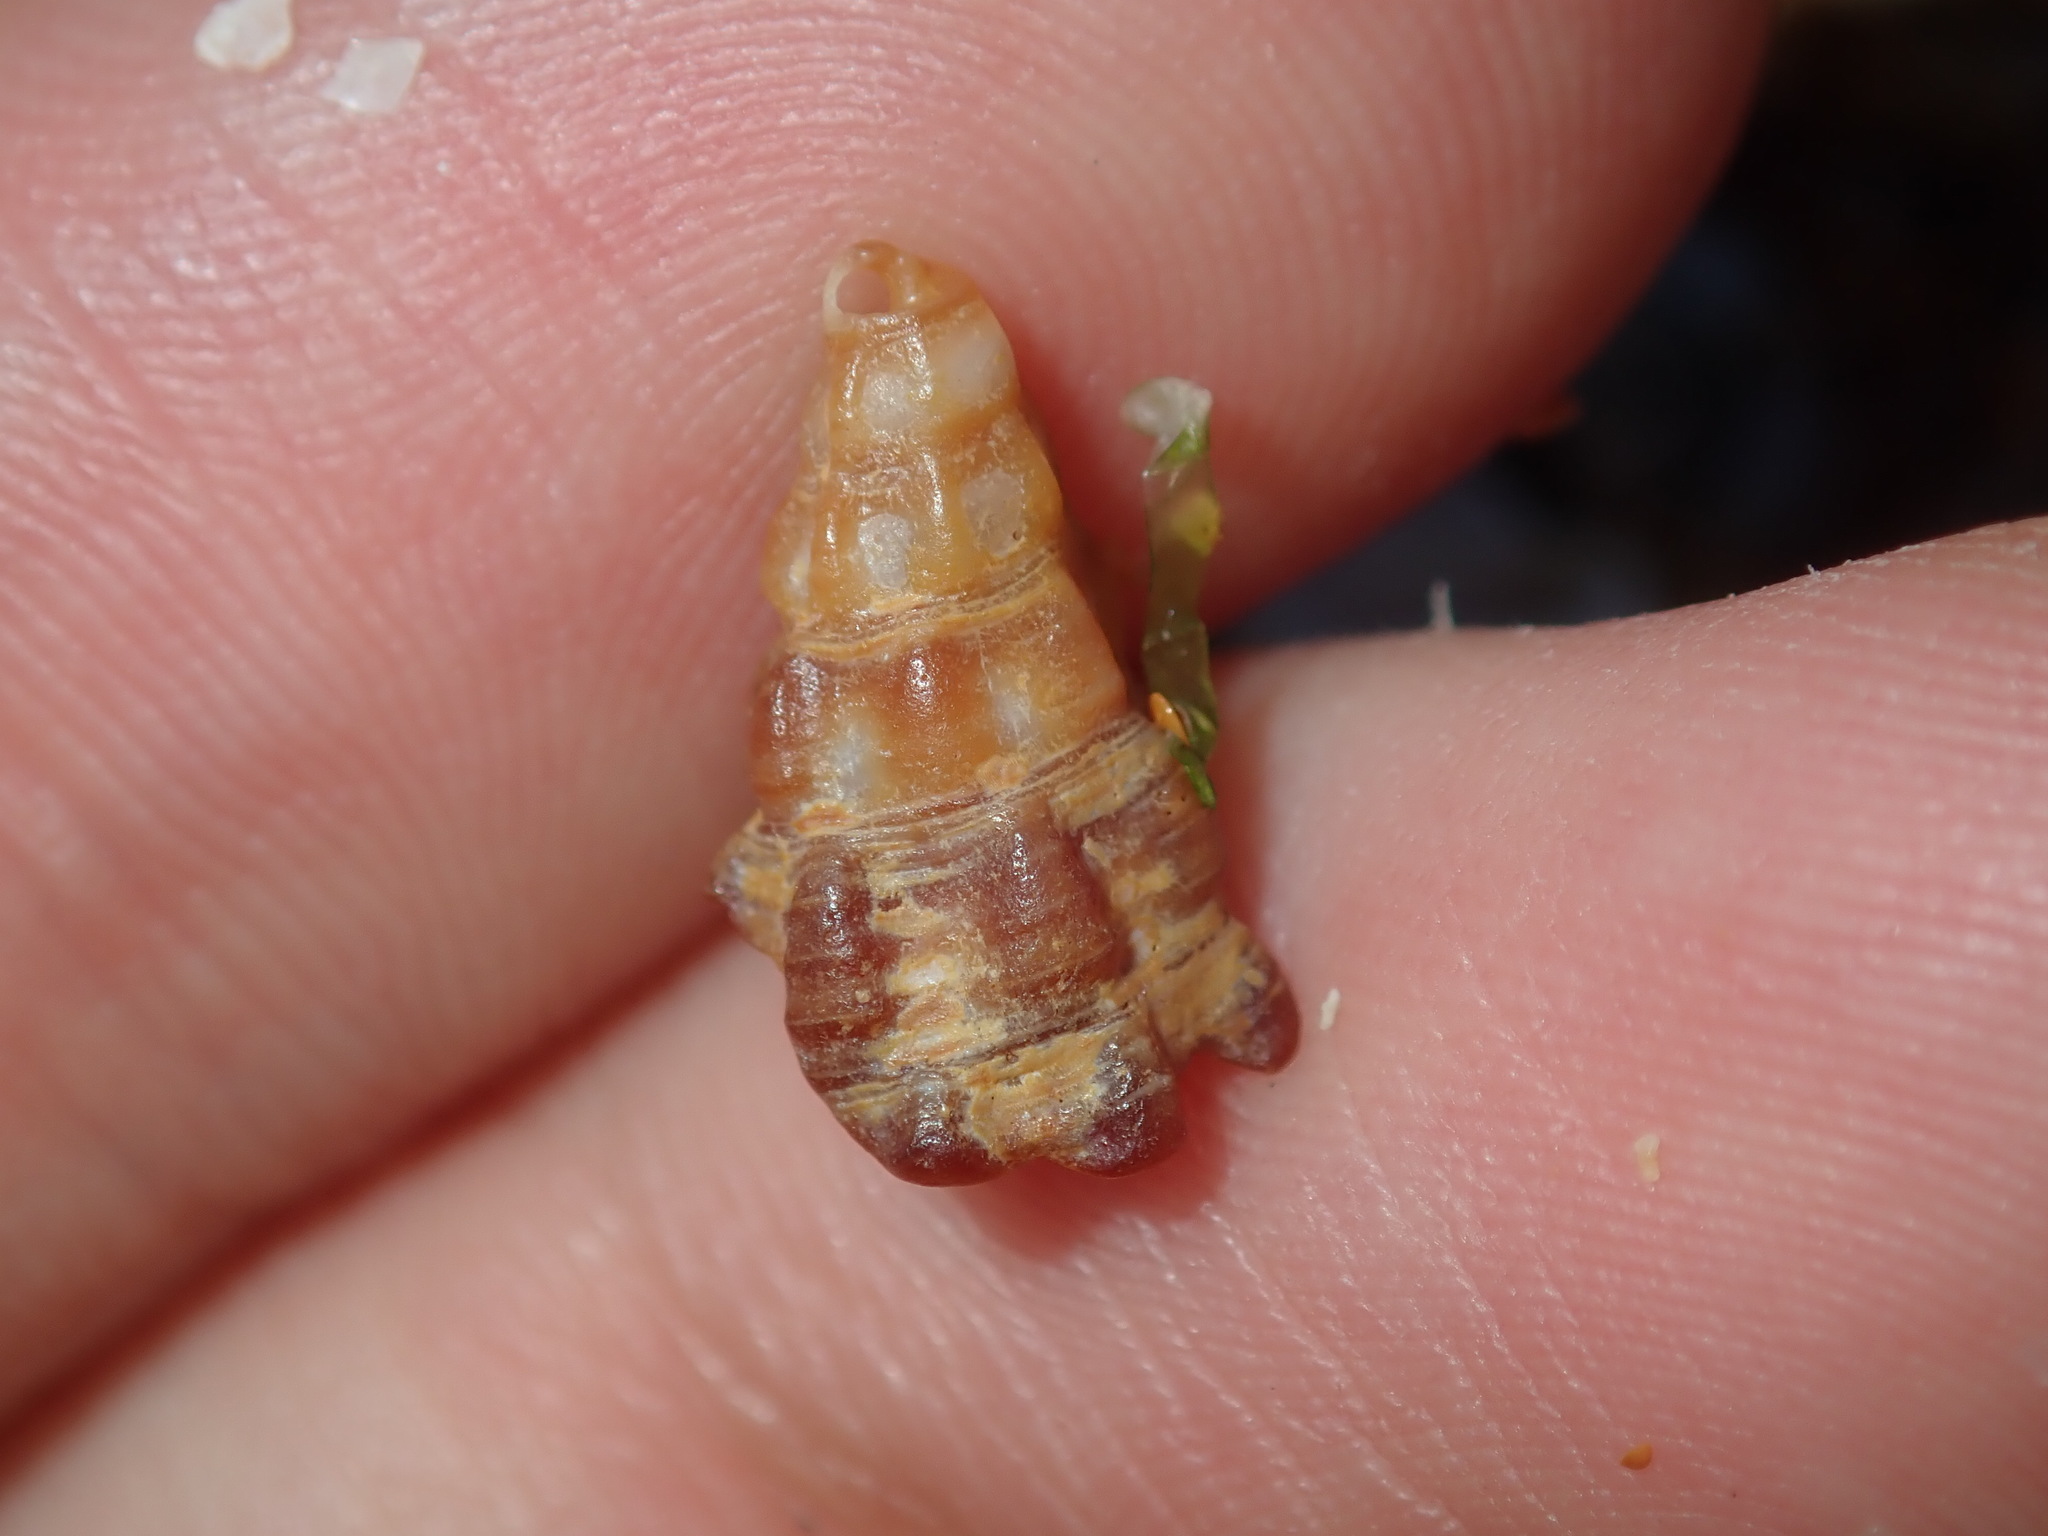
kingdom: Animalia
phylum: Mollusca
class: Gastropoda
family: Batillariidae
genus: Batillaria
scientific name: Batillaria australis
